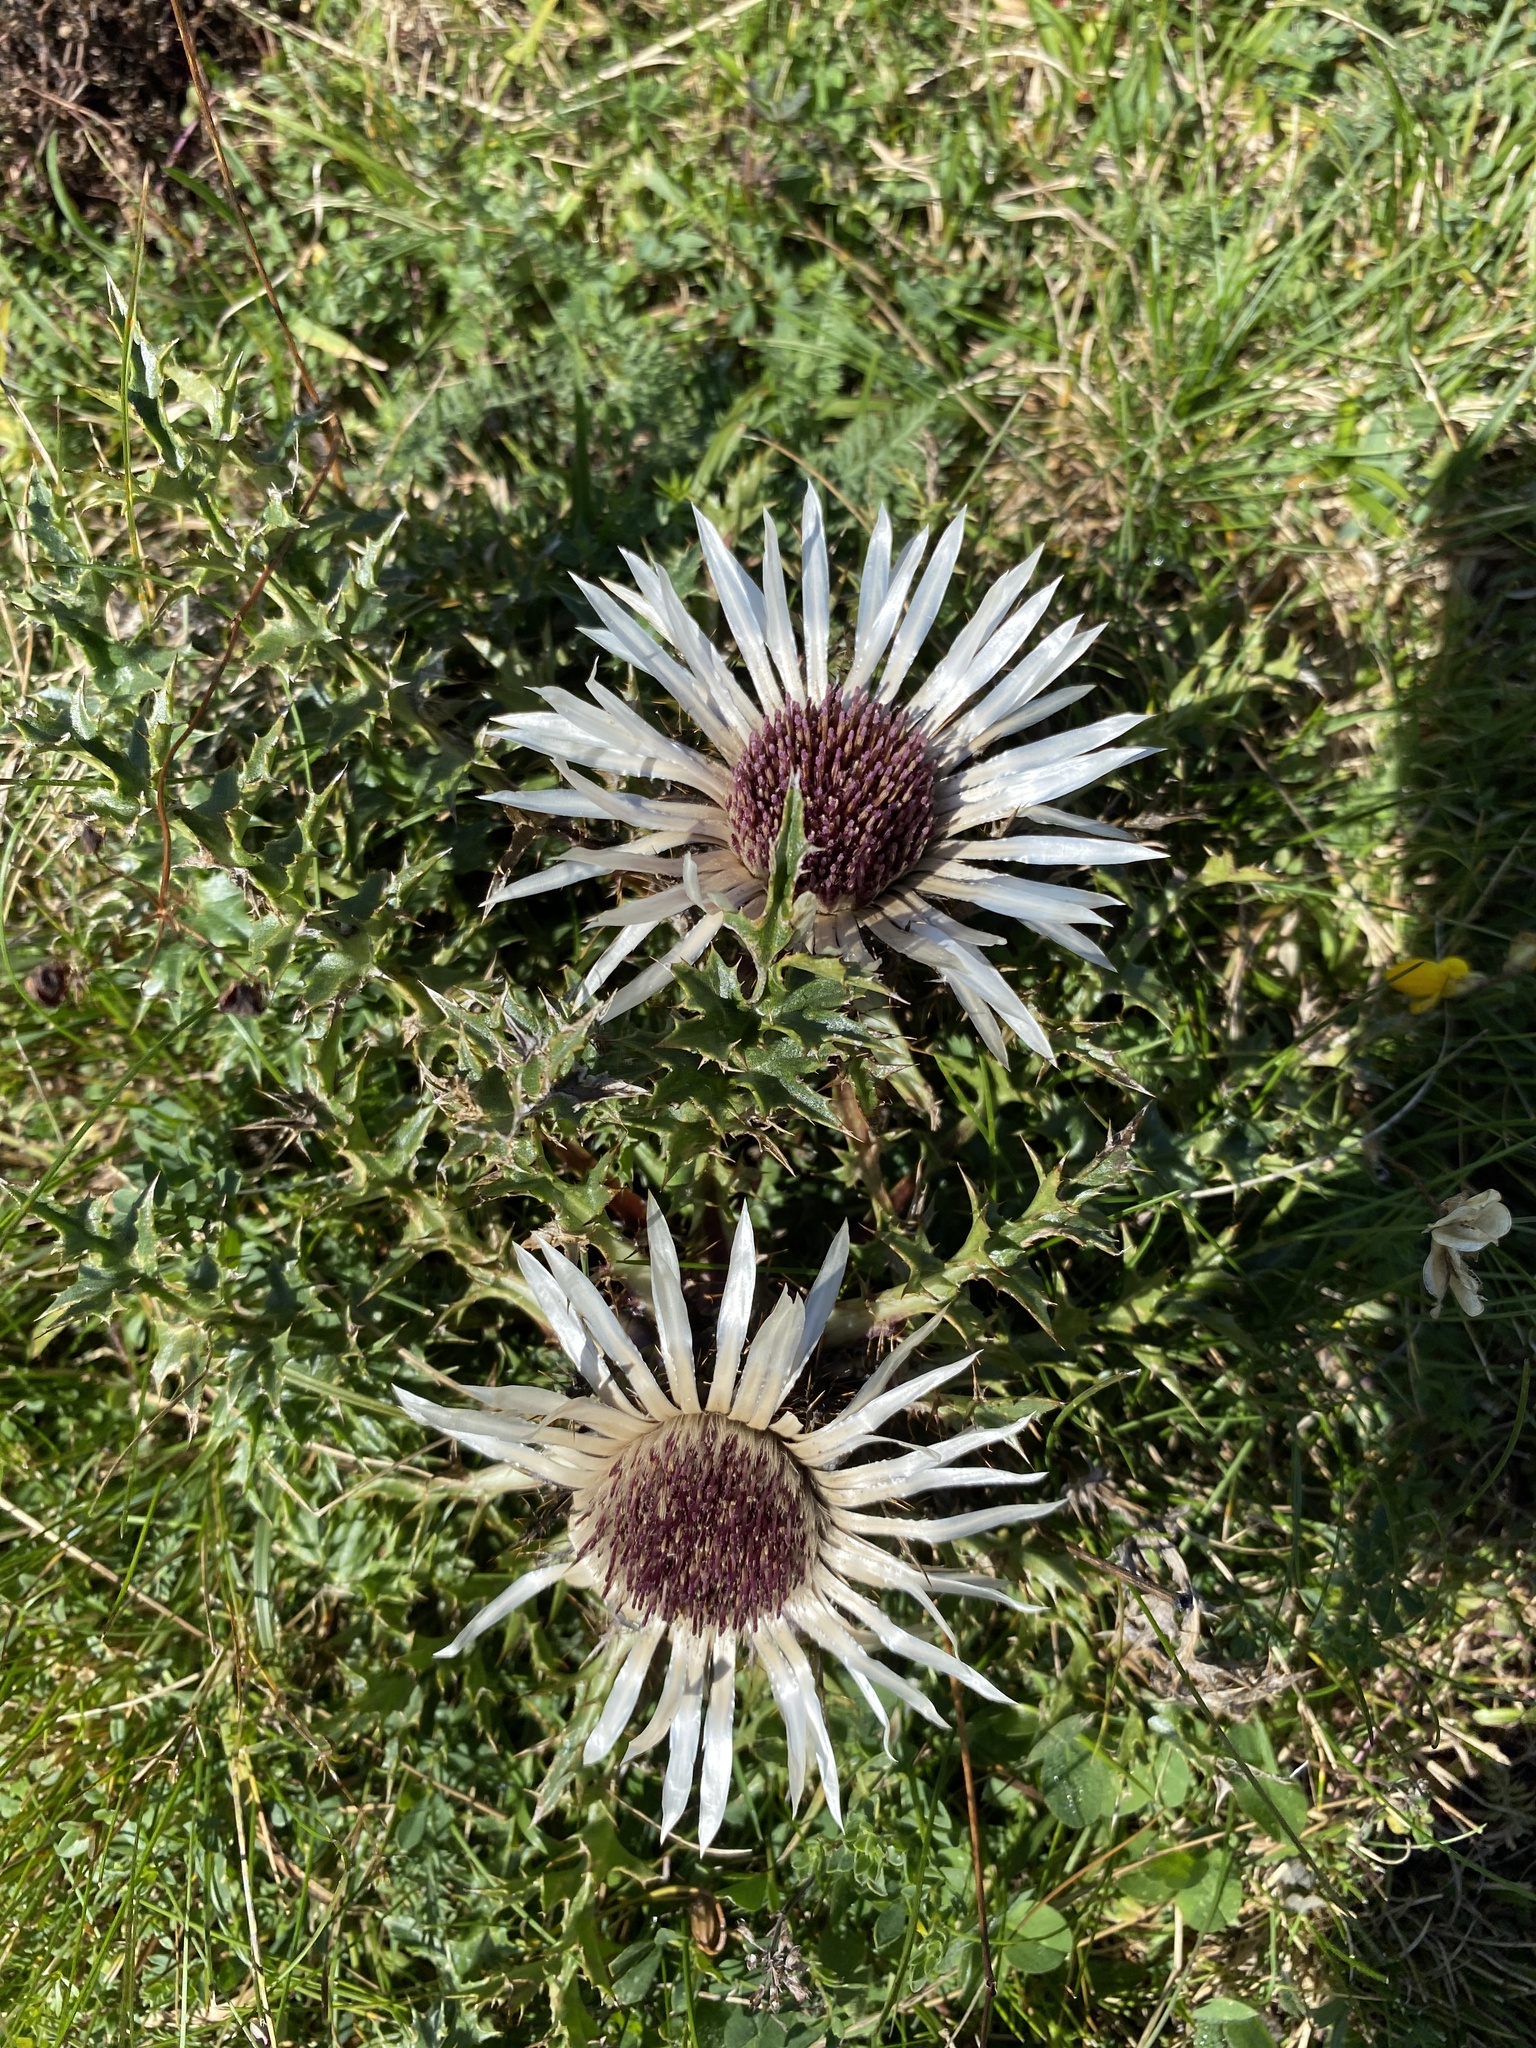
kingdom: Plantae
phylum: Tracheophyta
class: Magnoliopsida
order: Asterales
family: Asteraceae
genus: Carlina
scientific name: Carlina acaulis
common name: Stemless carline thistle
